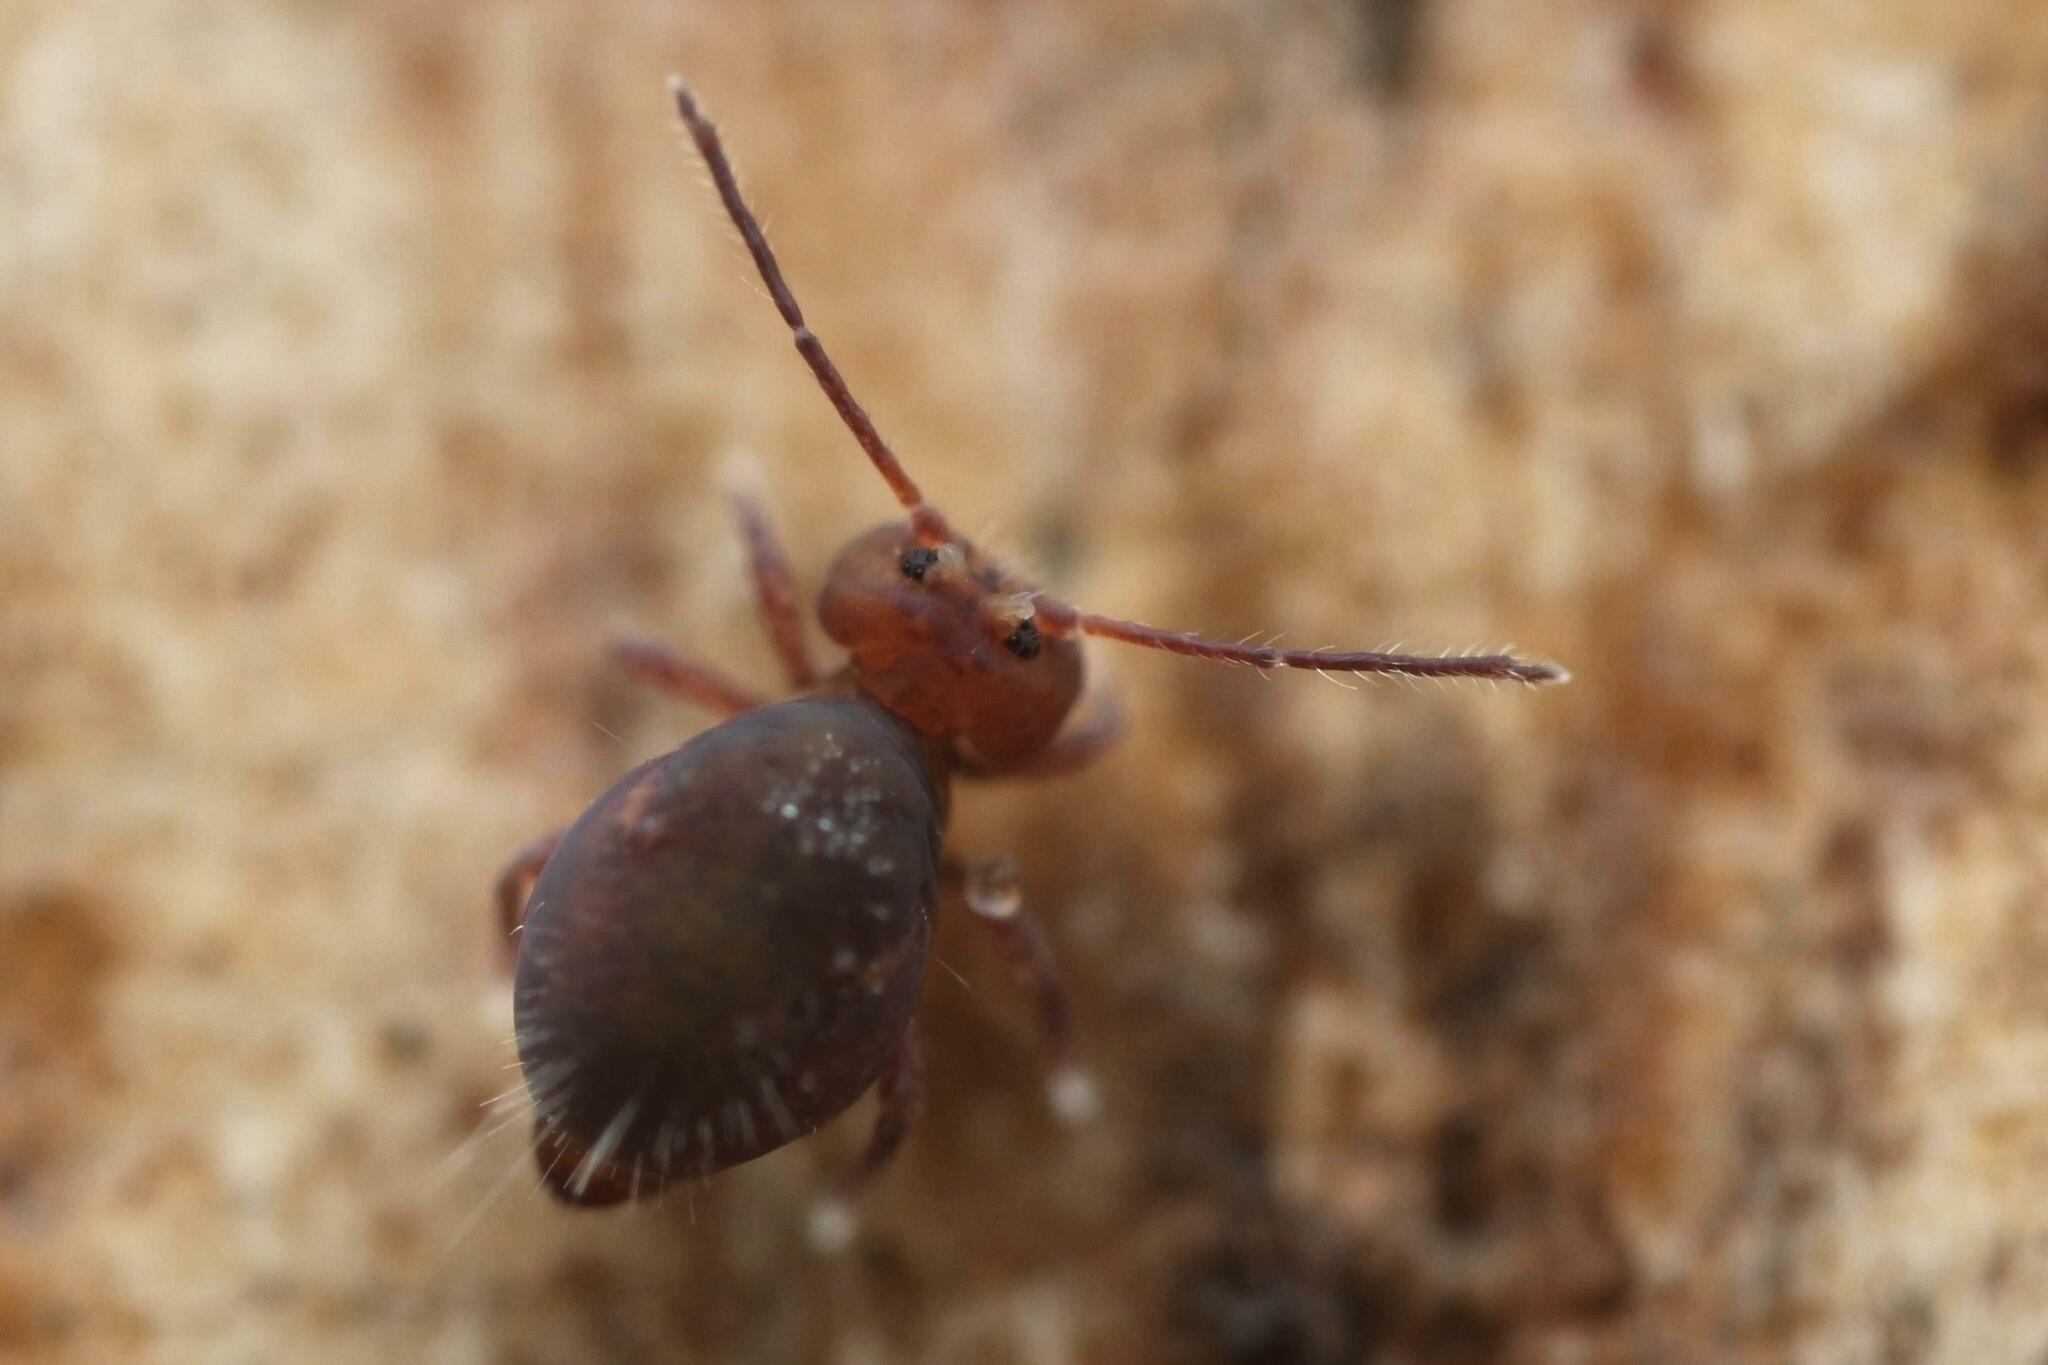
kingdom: Animalia
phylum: Arthropoda
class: Collembola
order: Symphypleona
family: Dicyrtomidae
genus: Dicyrtoma
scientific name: Dicyrtoma fusca
